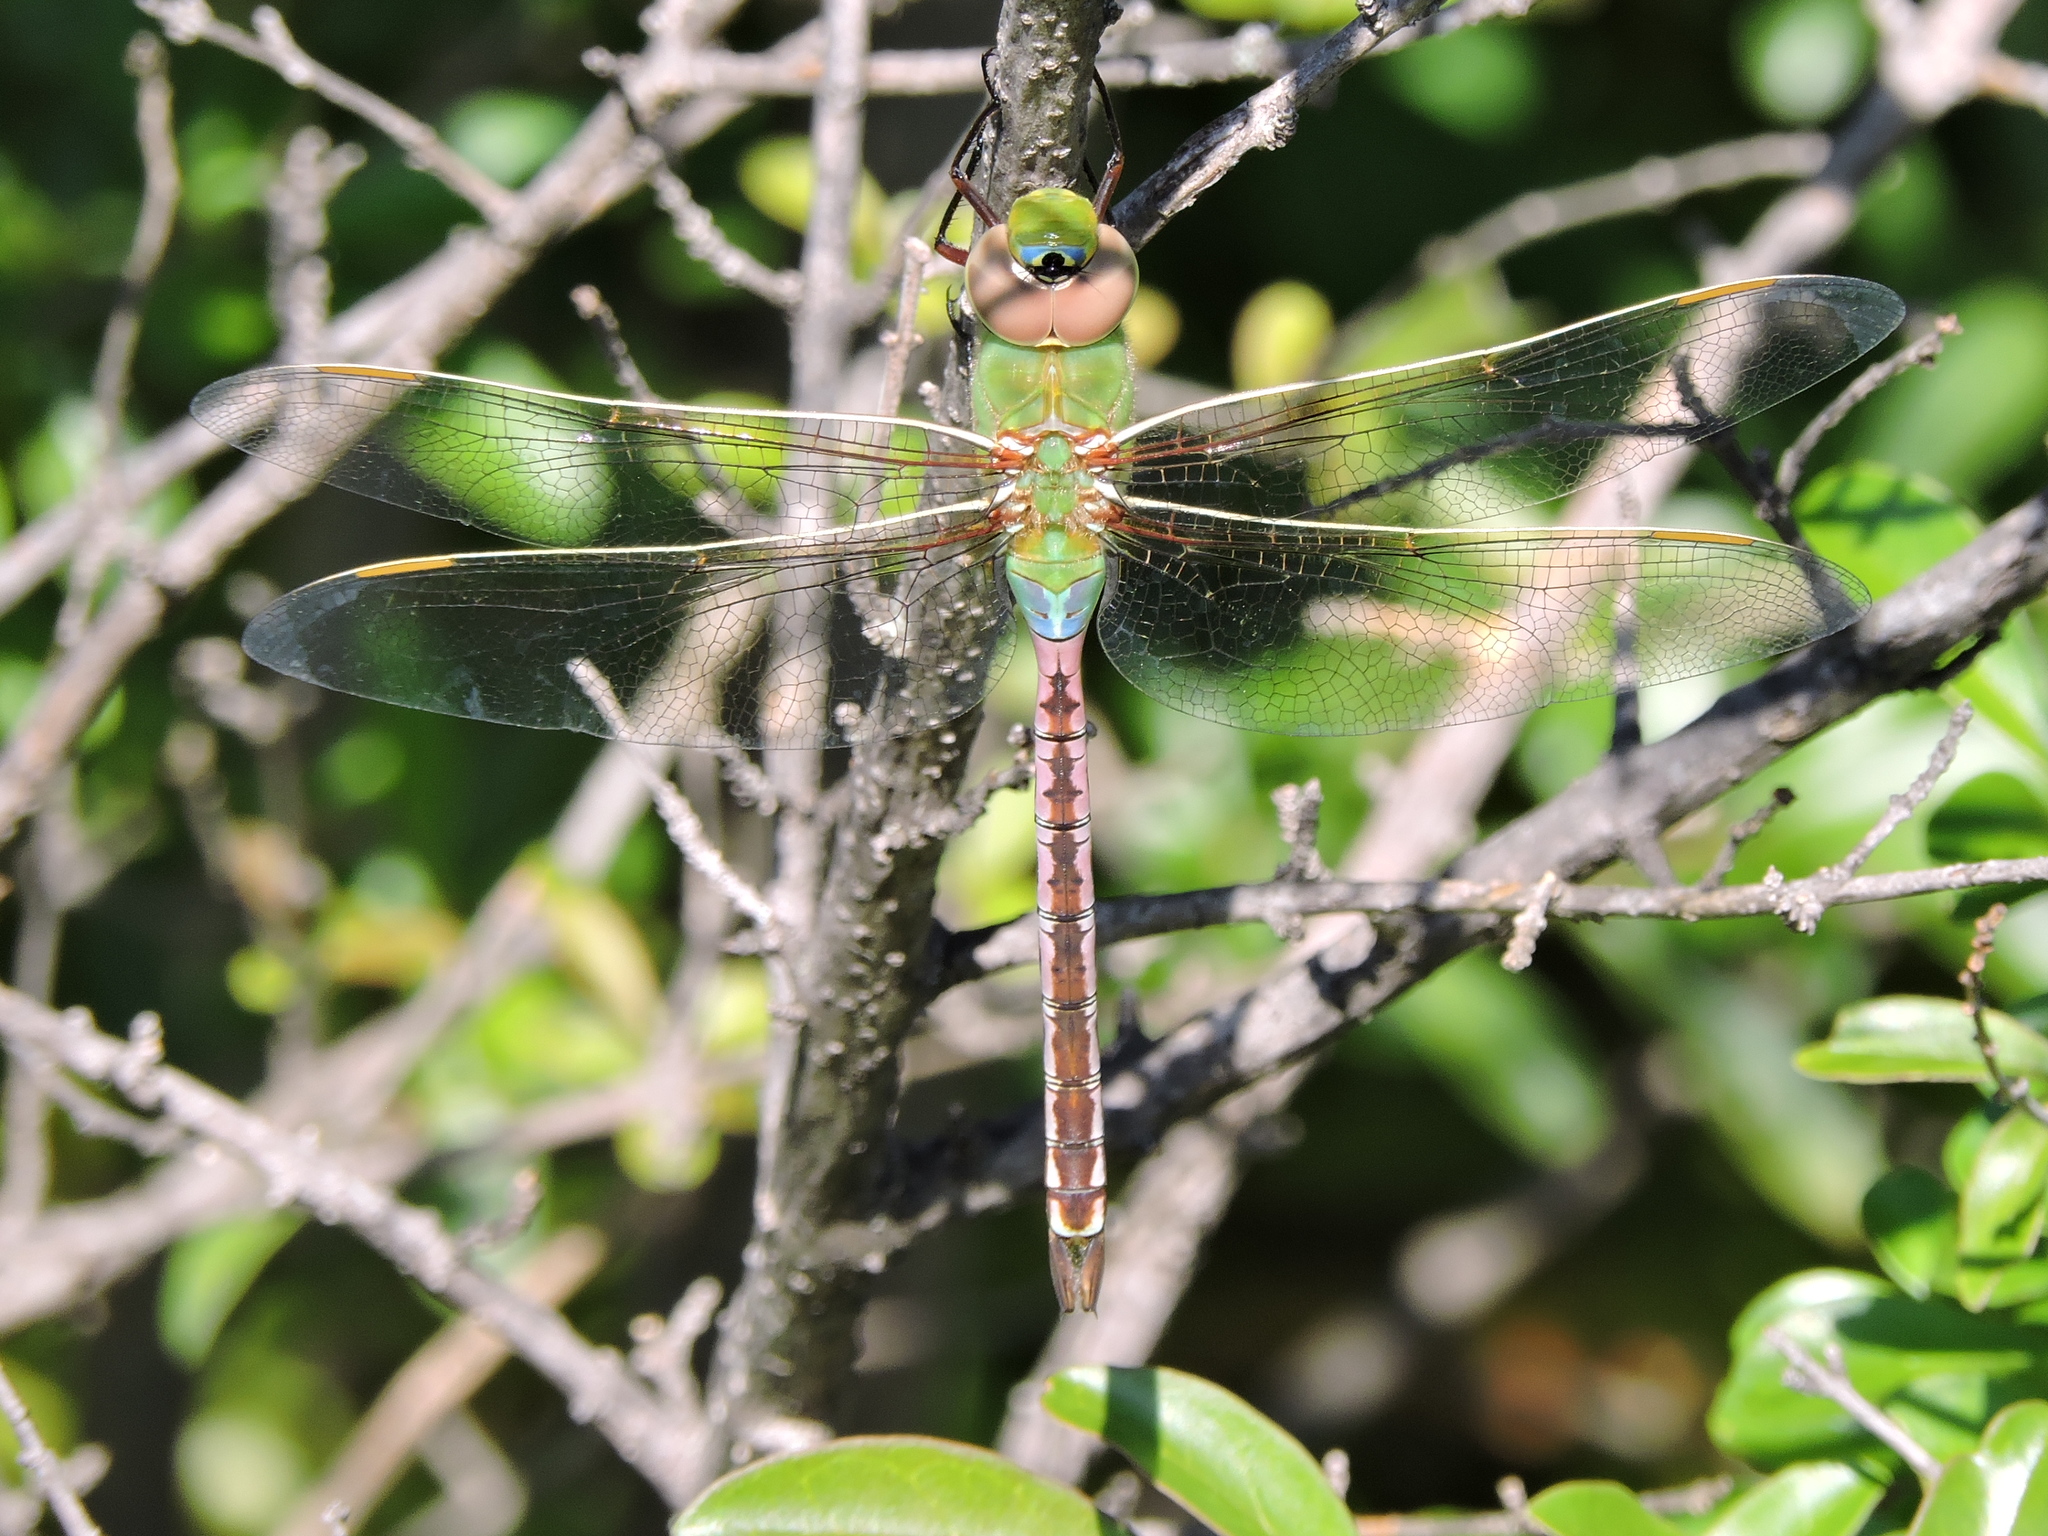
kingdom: Animalia
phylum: Arthropoda
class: Insecta
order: Odonata
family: Aeshnidae
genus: Anax
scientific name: Anax junius
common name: Common green darner
